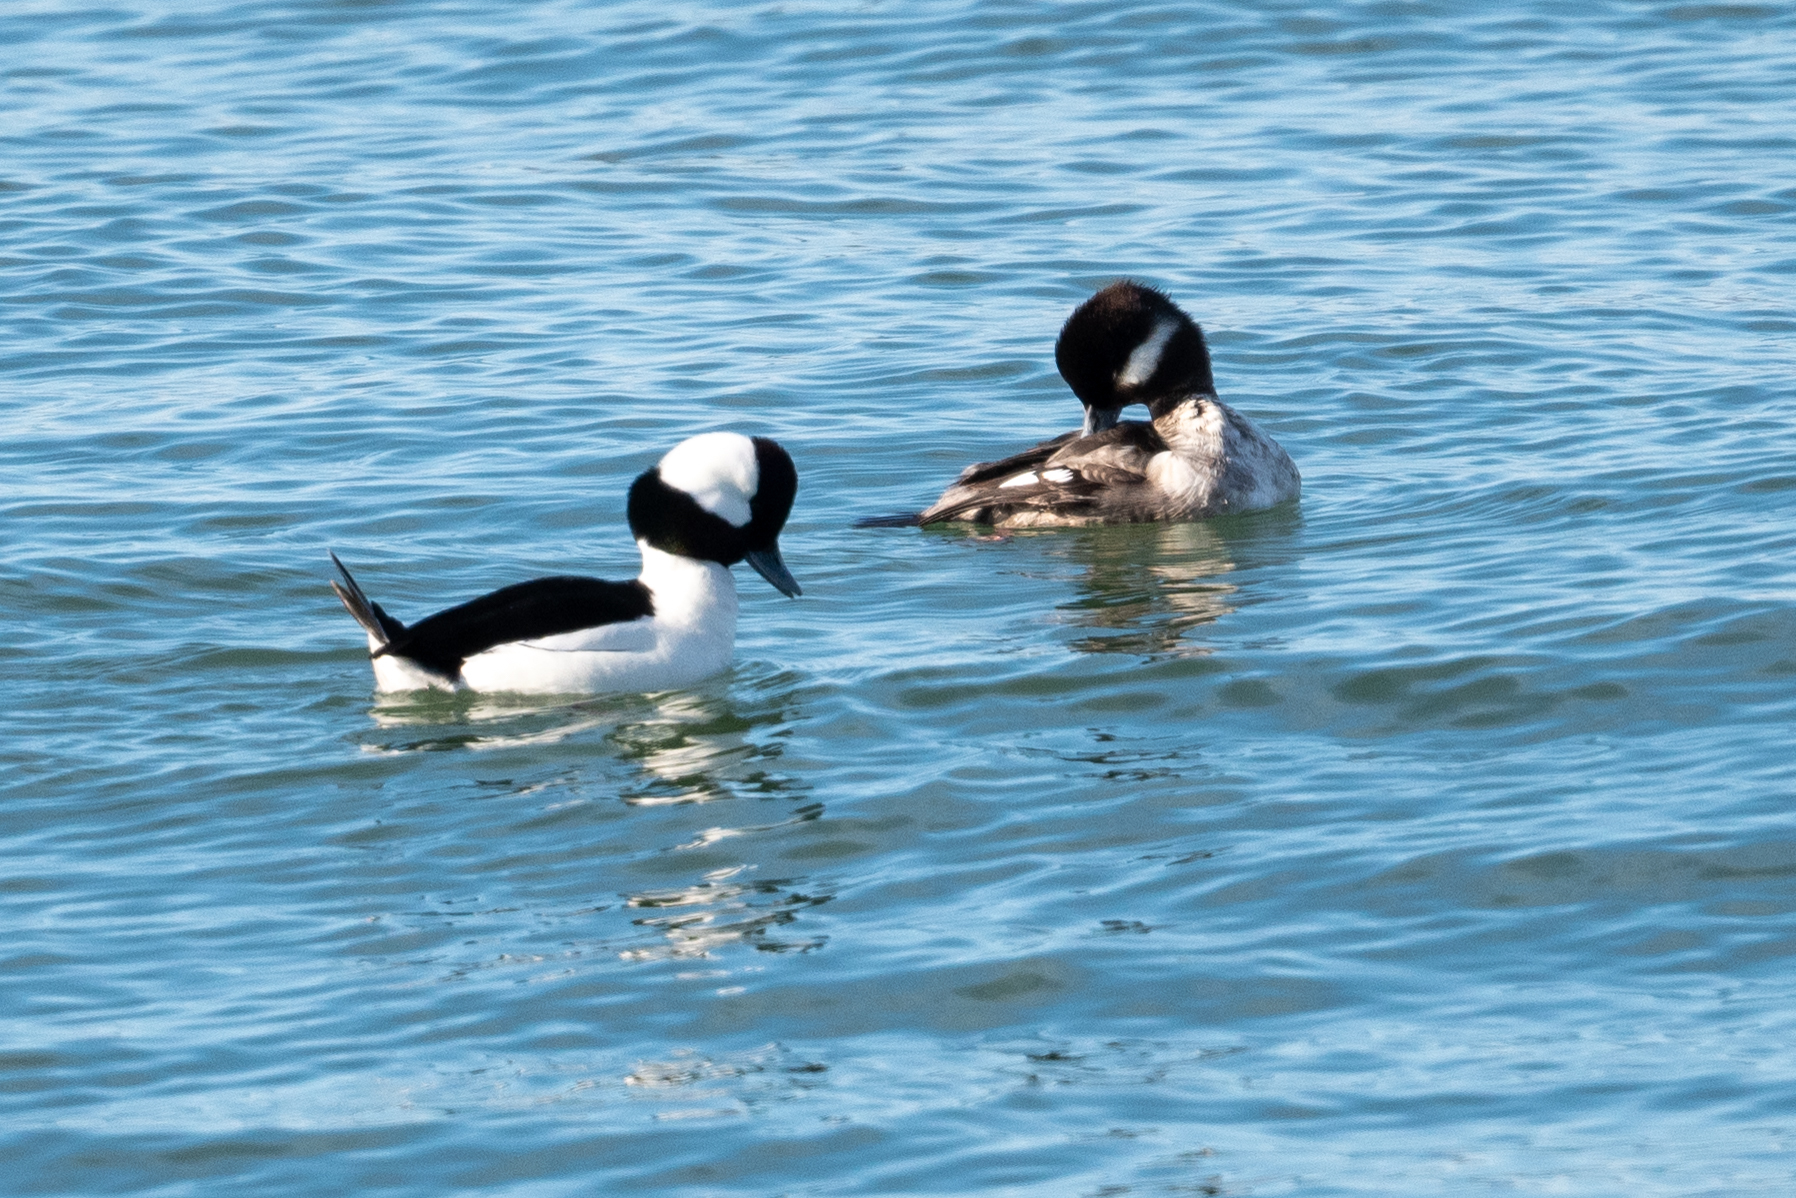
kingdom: Animalia
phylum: Chordata
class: Aves
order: Anseriformes
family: Anatidae
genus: Bucephala
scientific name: Bucephala albeola
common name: Bufflehead
